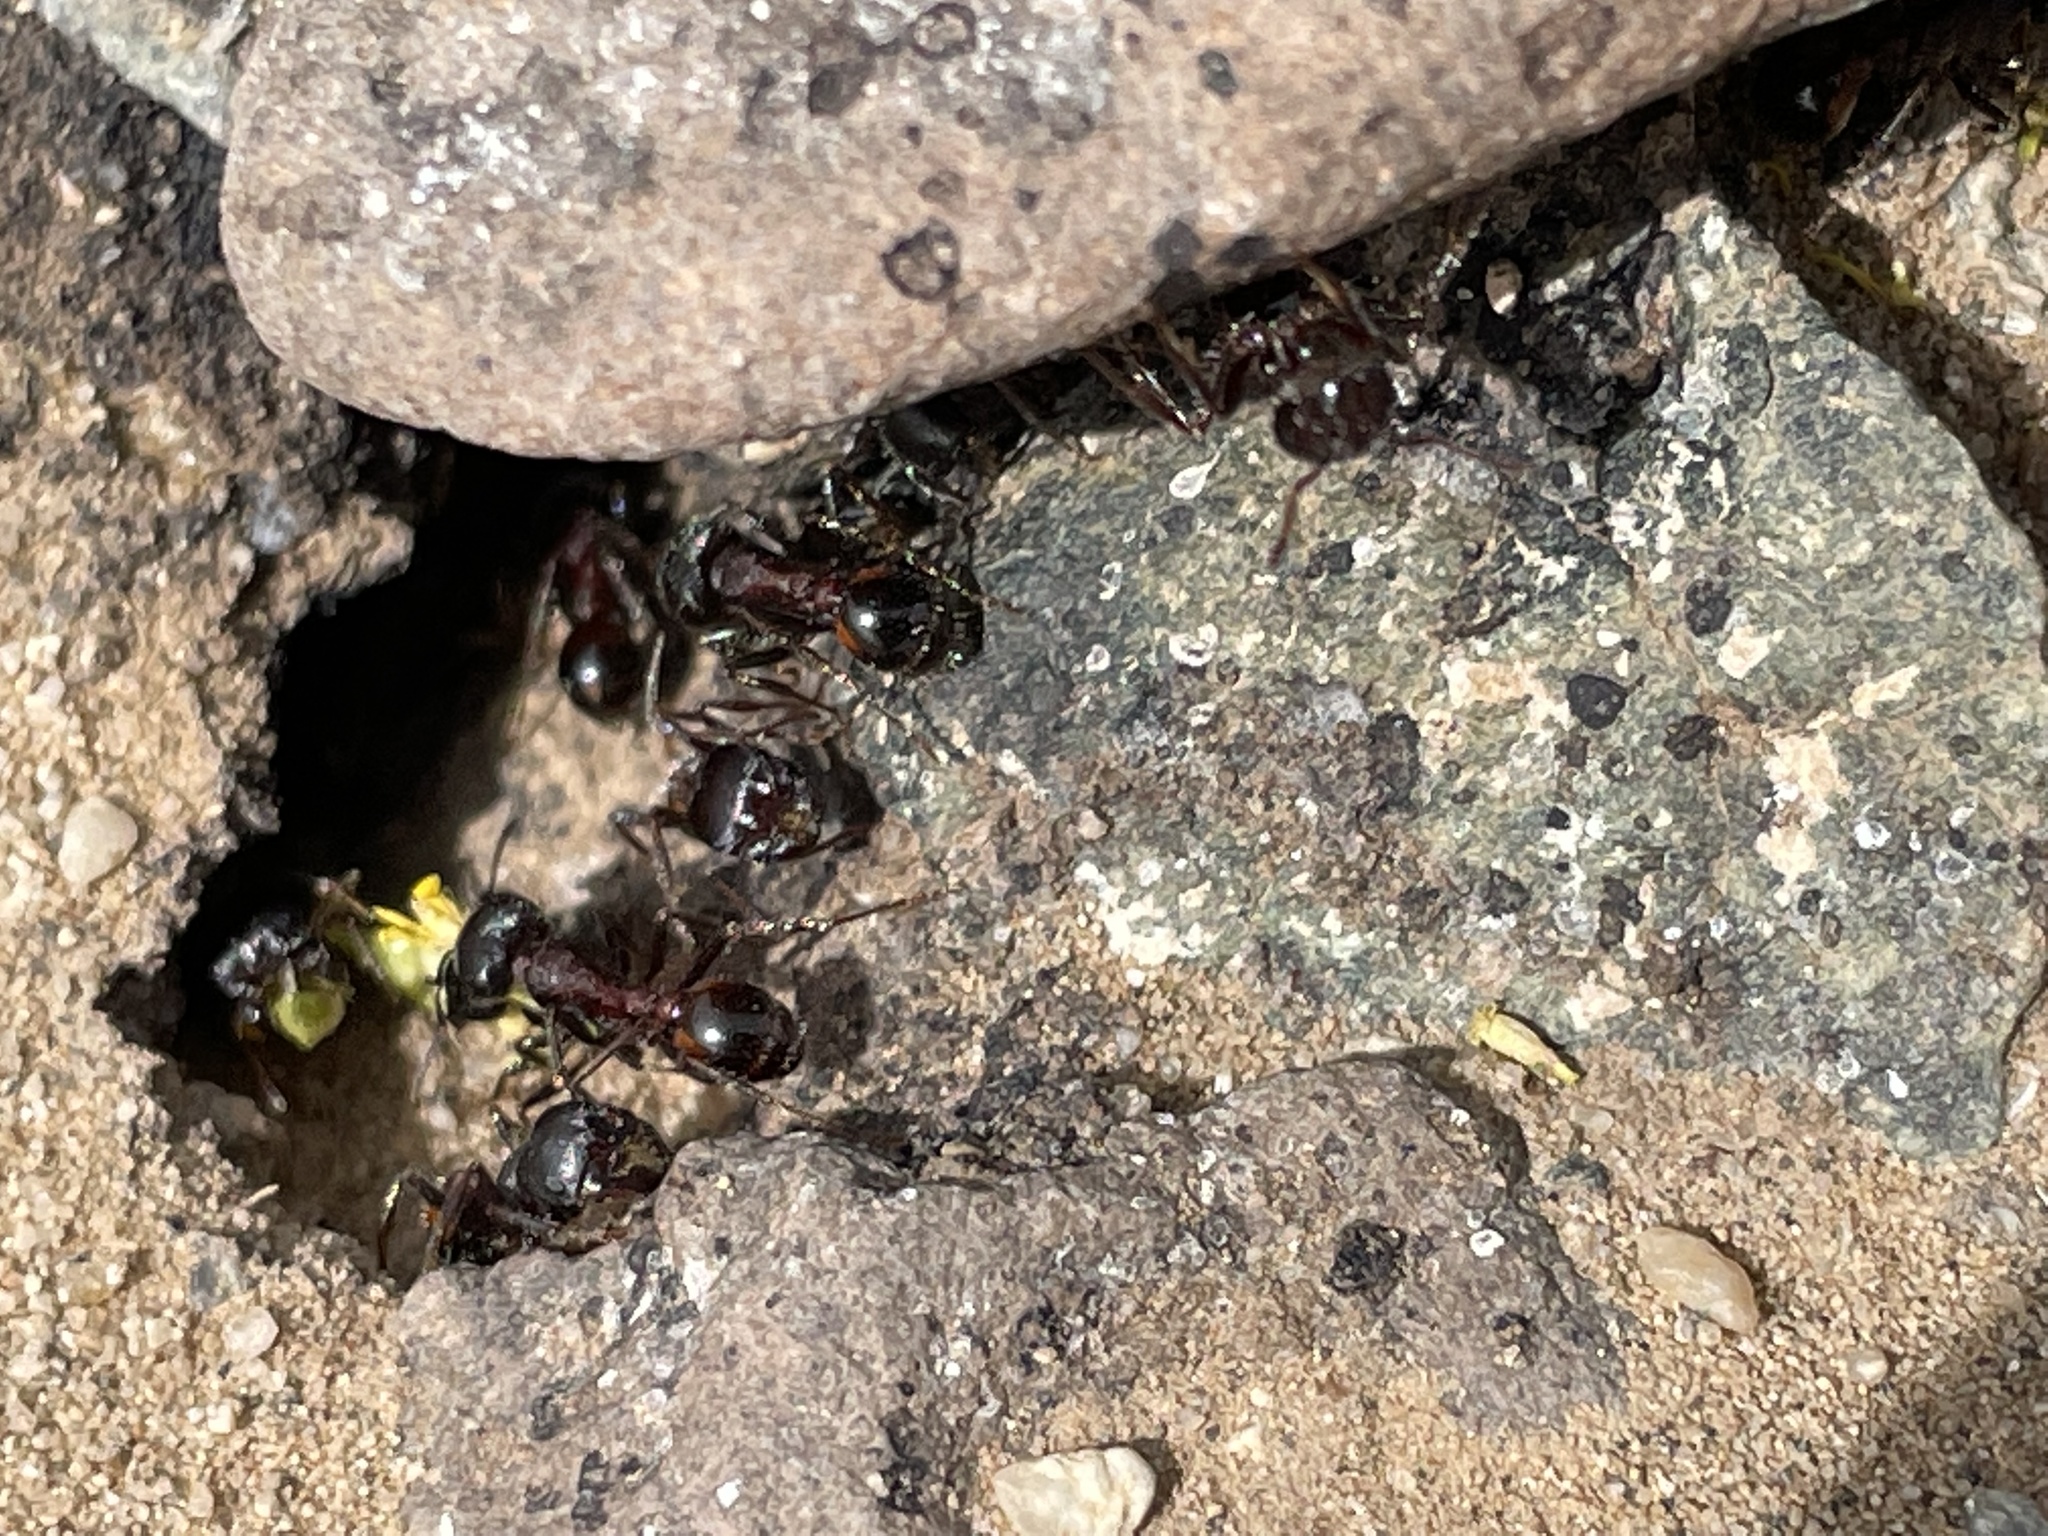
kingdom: Animalia
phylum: Arthropoda
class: Insecta
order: Hymenoptera
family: Formicidae
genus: Pogonomyrmex
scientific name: Pogonomyrmex rugosus
